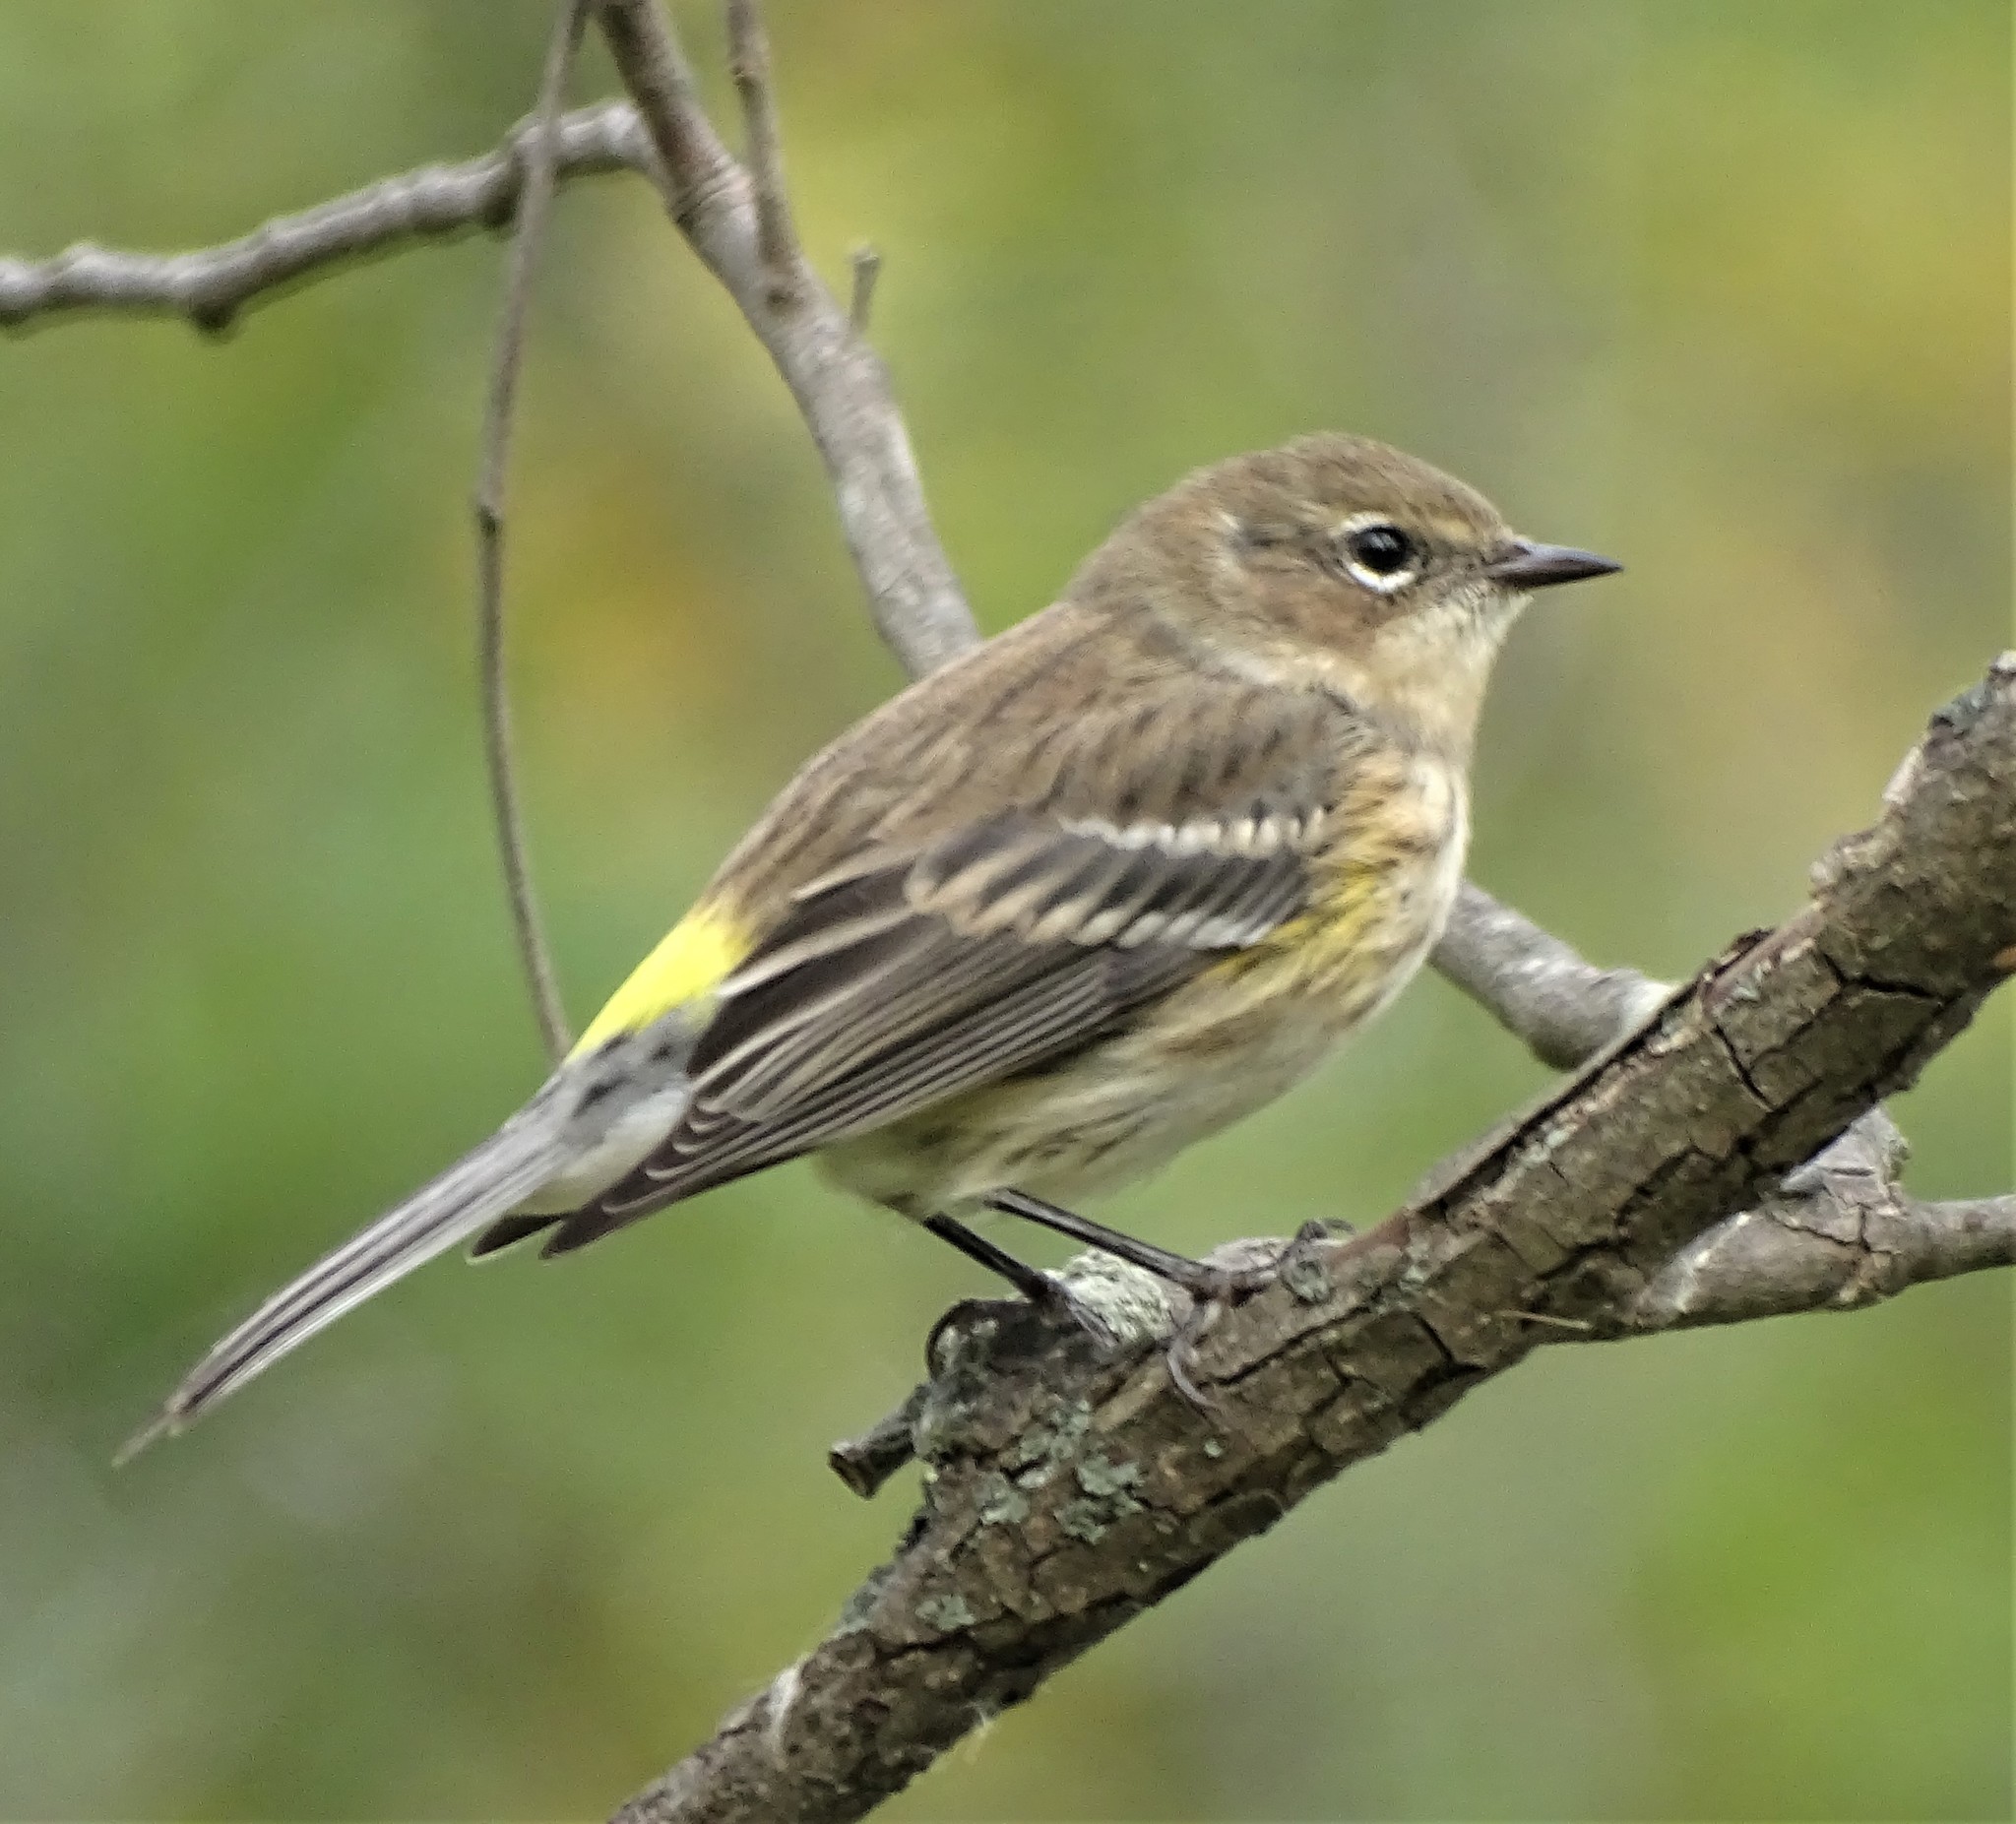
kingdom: Animalia
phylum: Chordata
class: Aves
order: Passeriformes
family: Parulidae
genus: Setophaga
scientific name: Setophaga coronata
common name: Myrtle warbler
